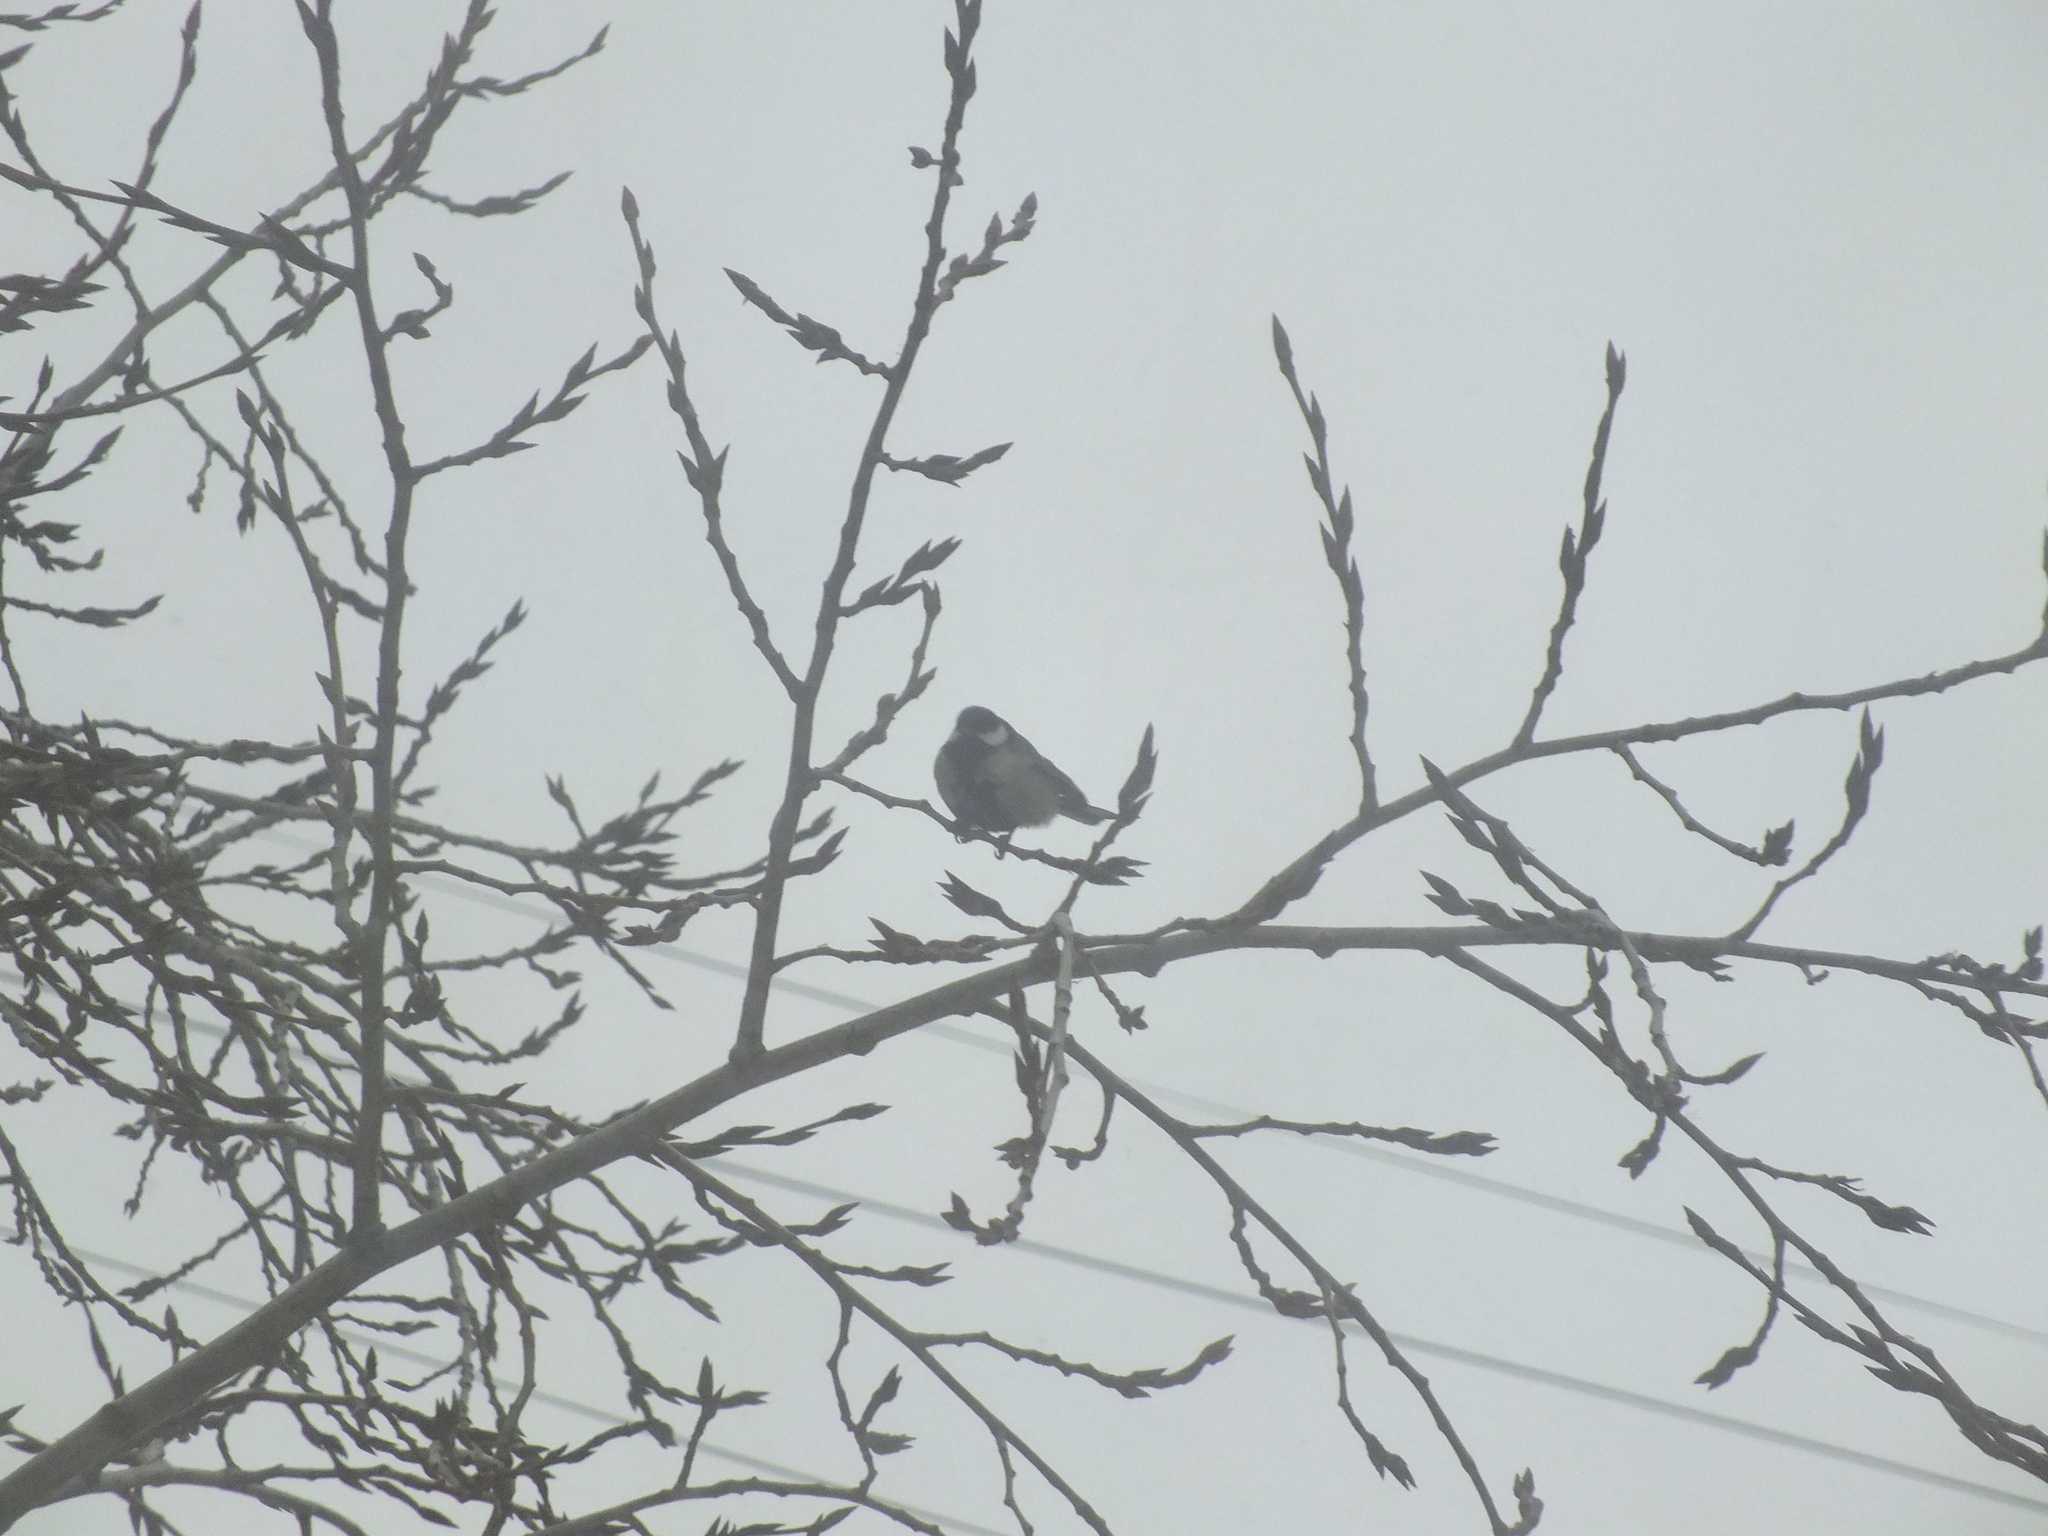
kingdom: Animalia
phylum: Chordata
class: Aves
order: Passeriformes
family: Paridae
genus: Parus
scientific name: Parus major
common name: Great tit
